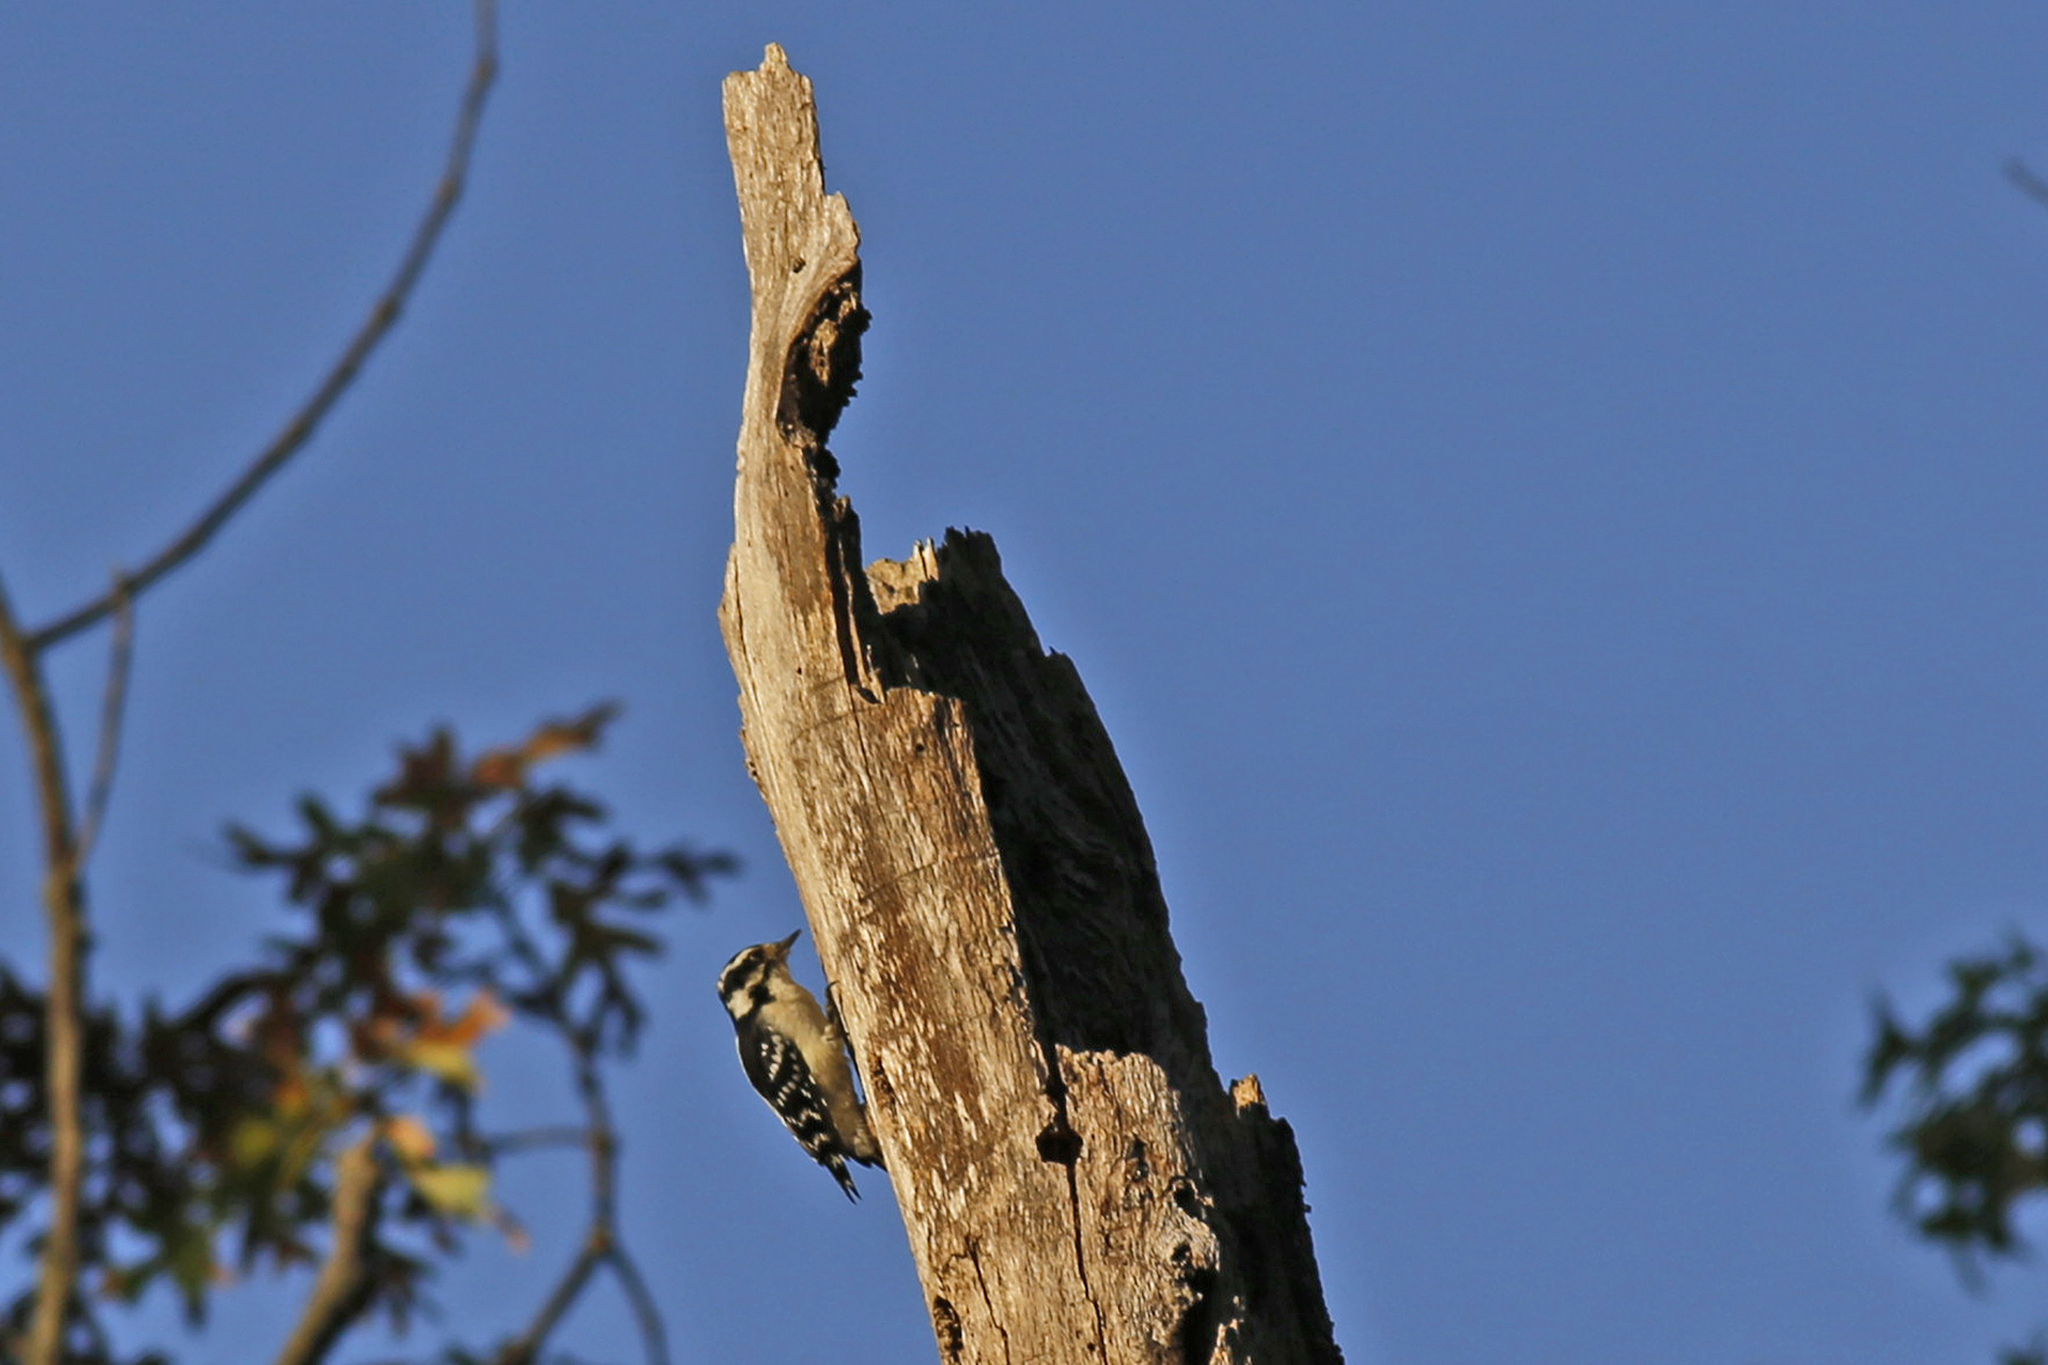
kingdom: Animalia
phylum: Chordata
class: Aves
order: Piciformes
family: Picidae
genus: Dryobates
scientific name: Dryobates pubescens
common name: Downy woodpecker
